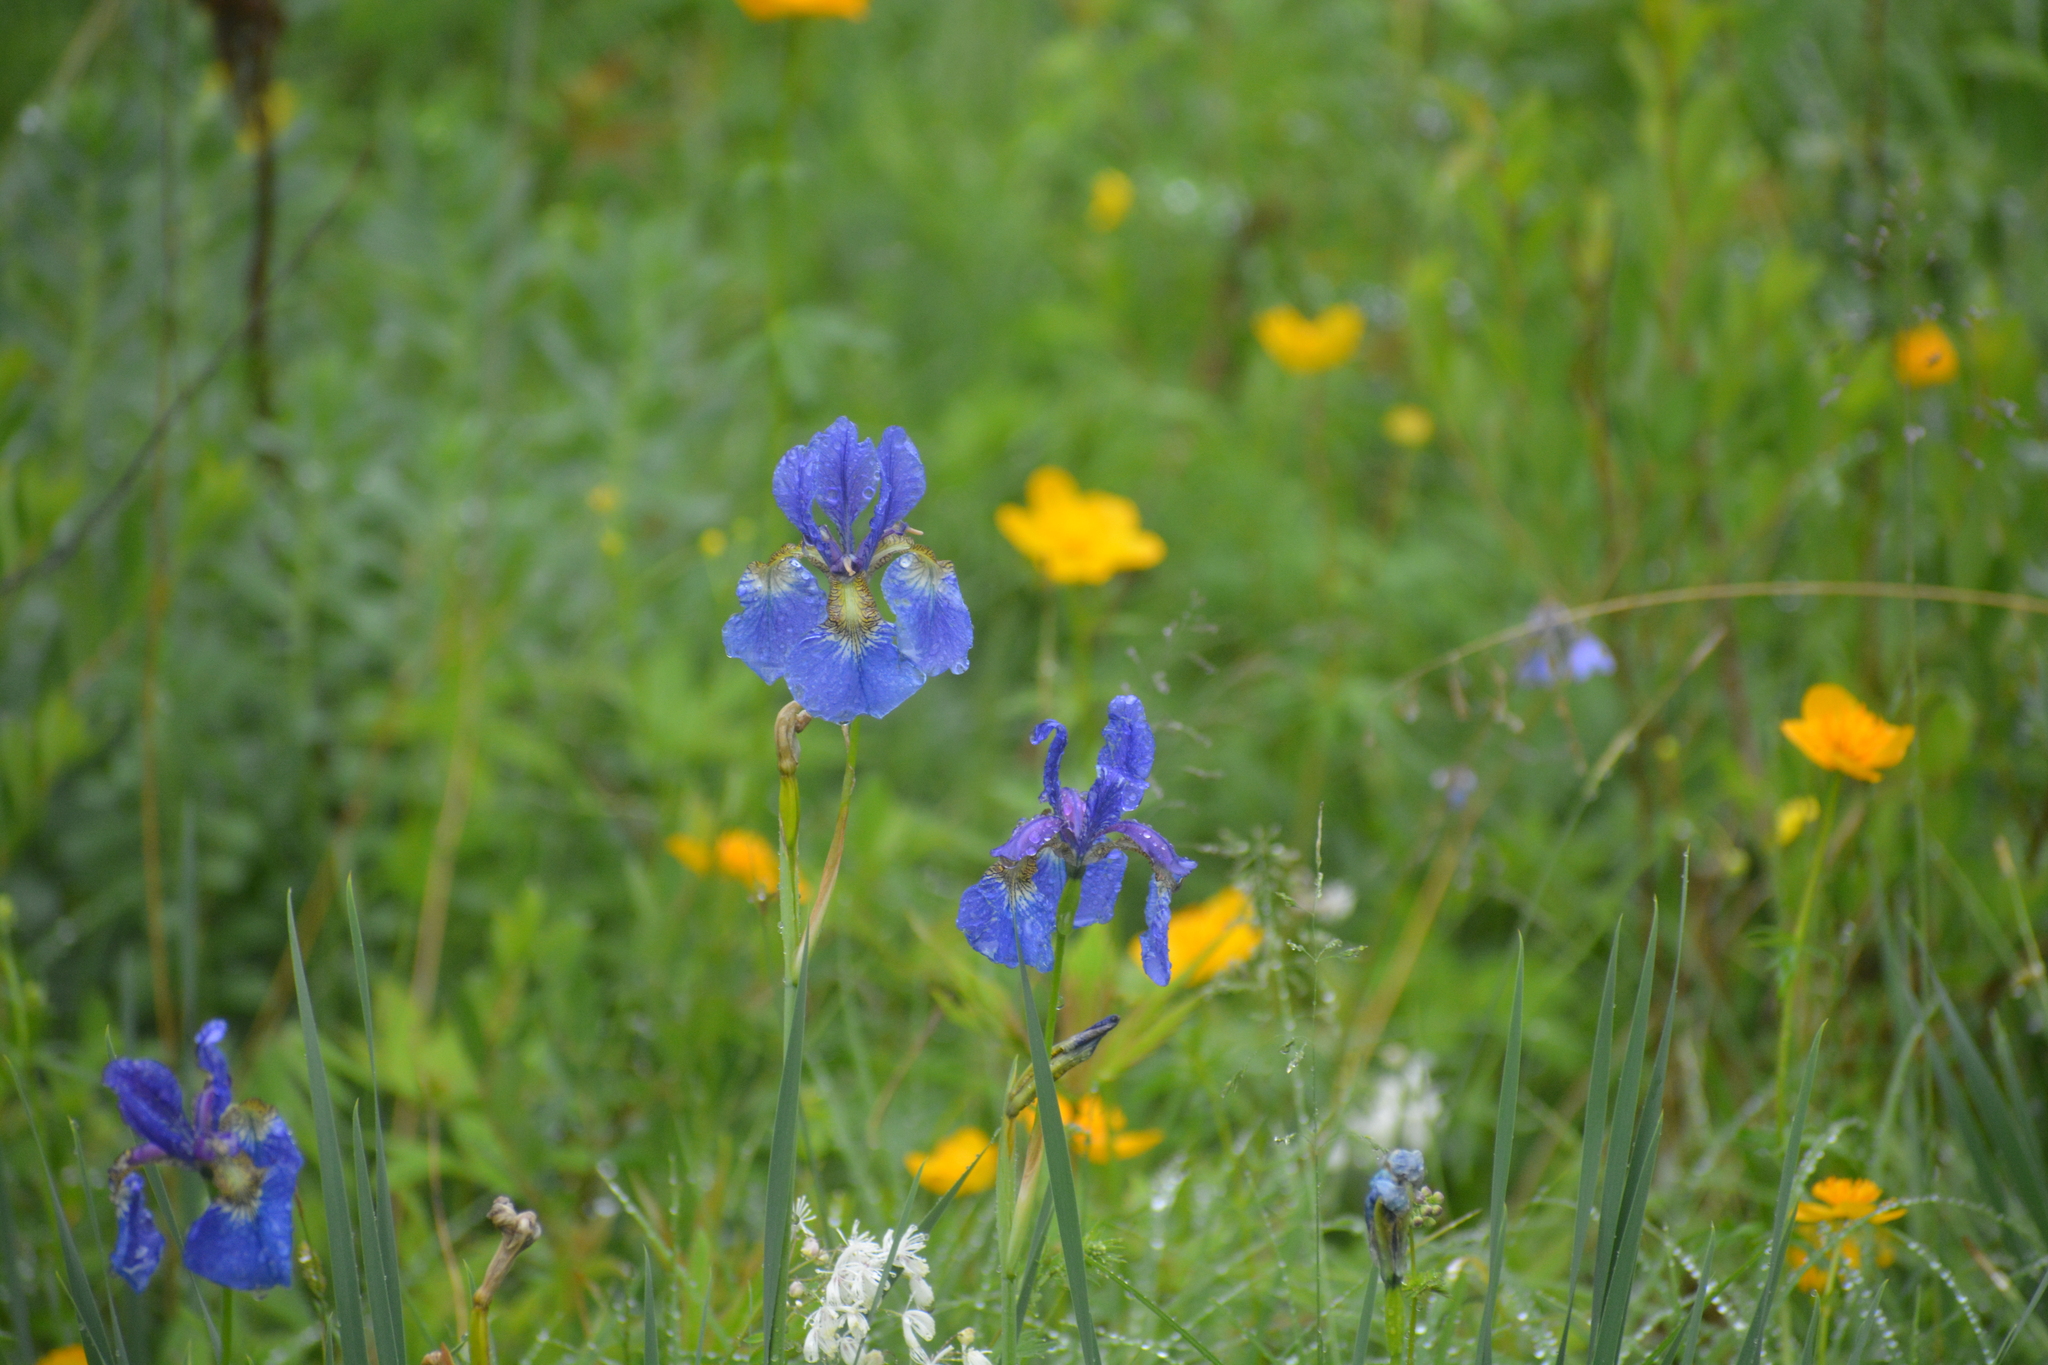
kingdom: Plantae
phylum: Tracheophyta
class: Liliopsida
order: Asparagales
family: Iridaceae
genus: Iris
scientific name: Iris sanguinea
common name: Blood iris
